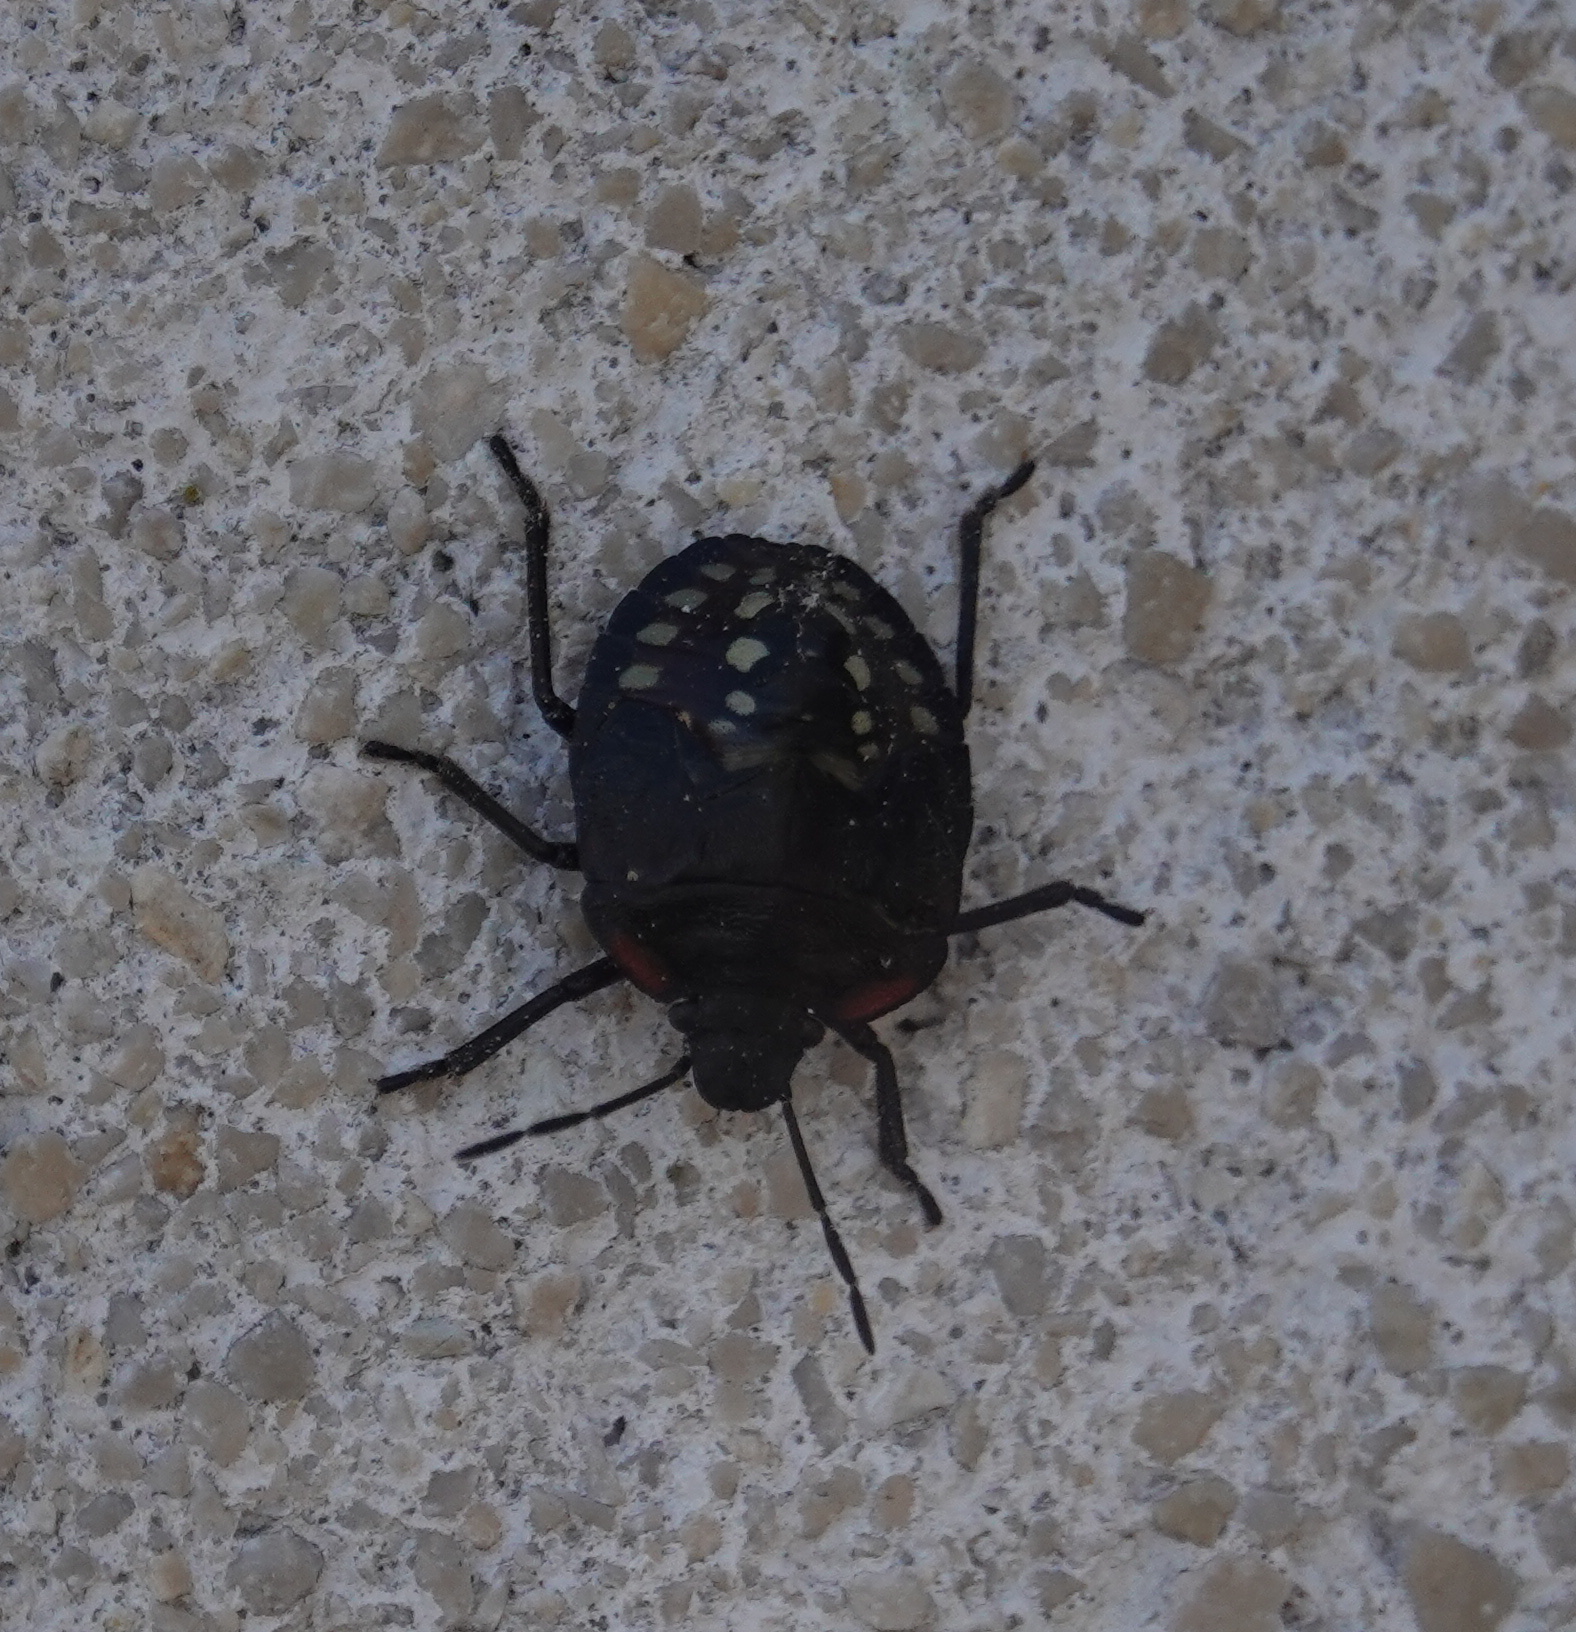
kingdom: Animalia
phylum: Arthropoda
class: Insecta
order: Hemiptera
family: Pentatomidae
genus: Nezara
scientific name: Nezara viridula
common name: Southern green stink bug
